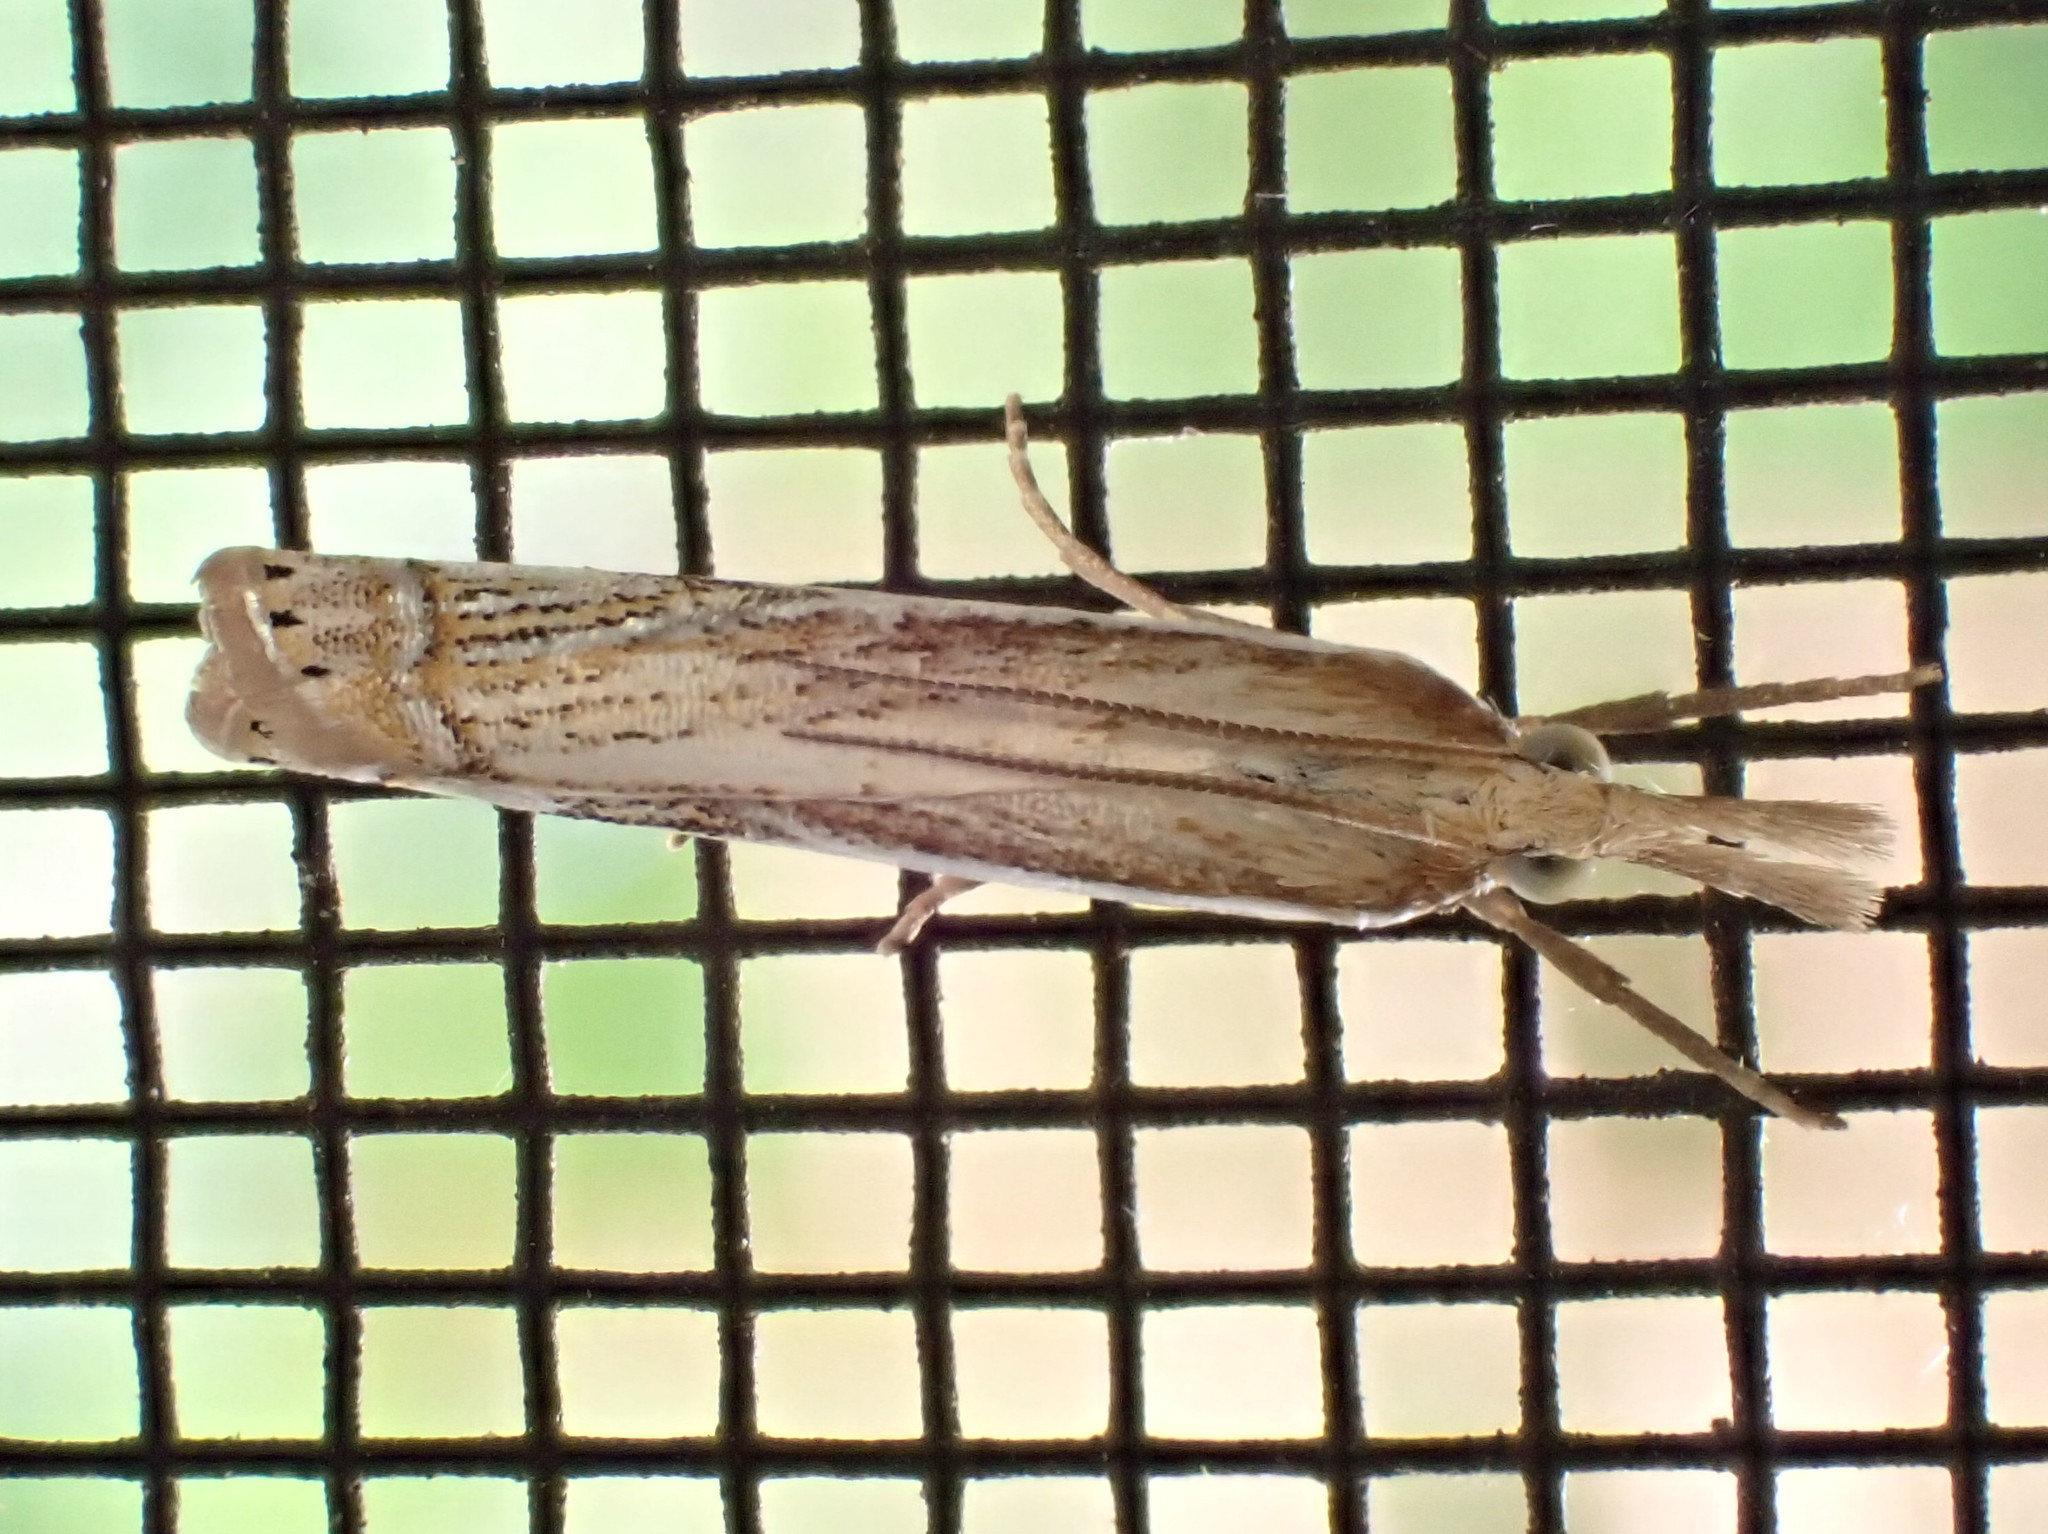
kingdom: Animalia
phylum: Arthropoda
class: Insecta
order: Lepidoptera
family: Crambidae
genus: Crambus
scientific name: Crambus saltuellus
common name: Pasture grass-veneer
